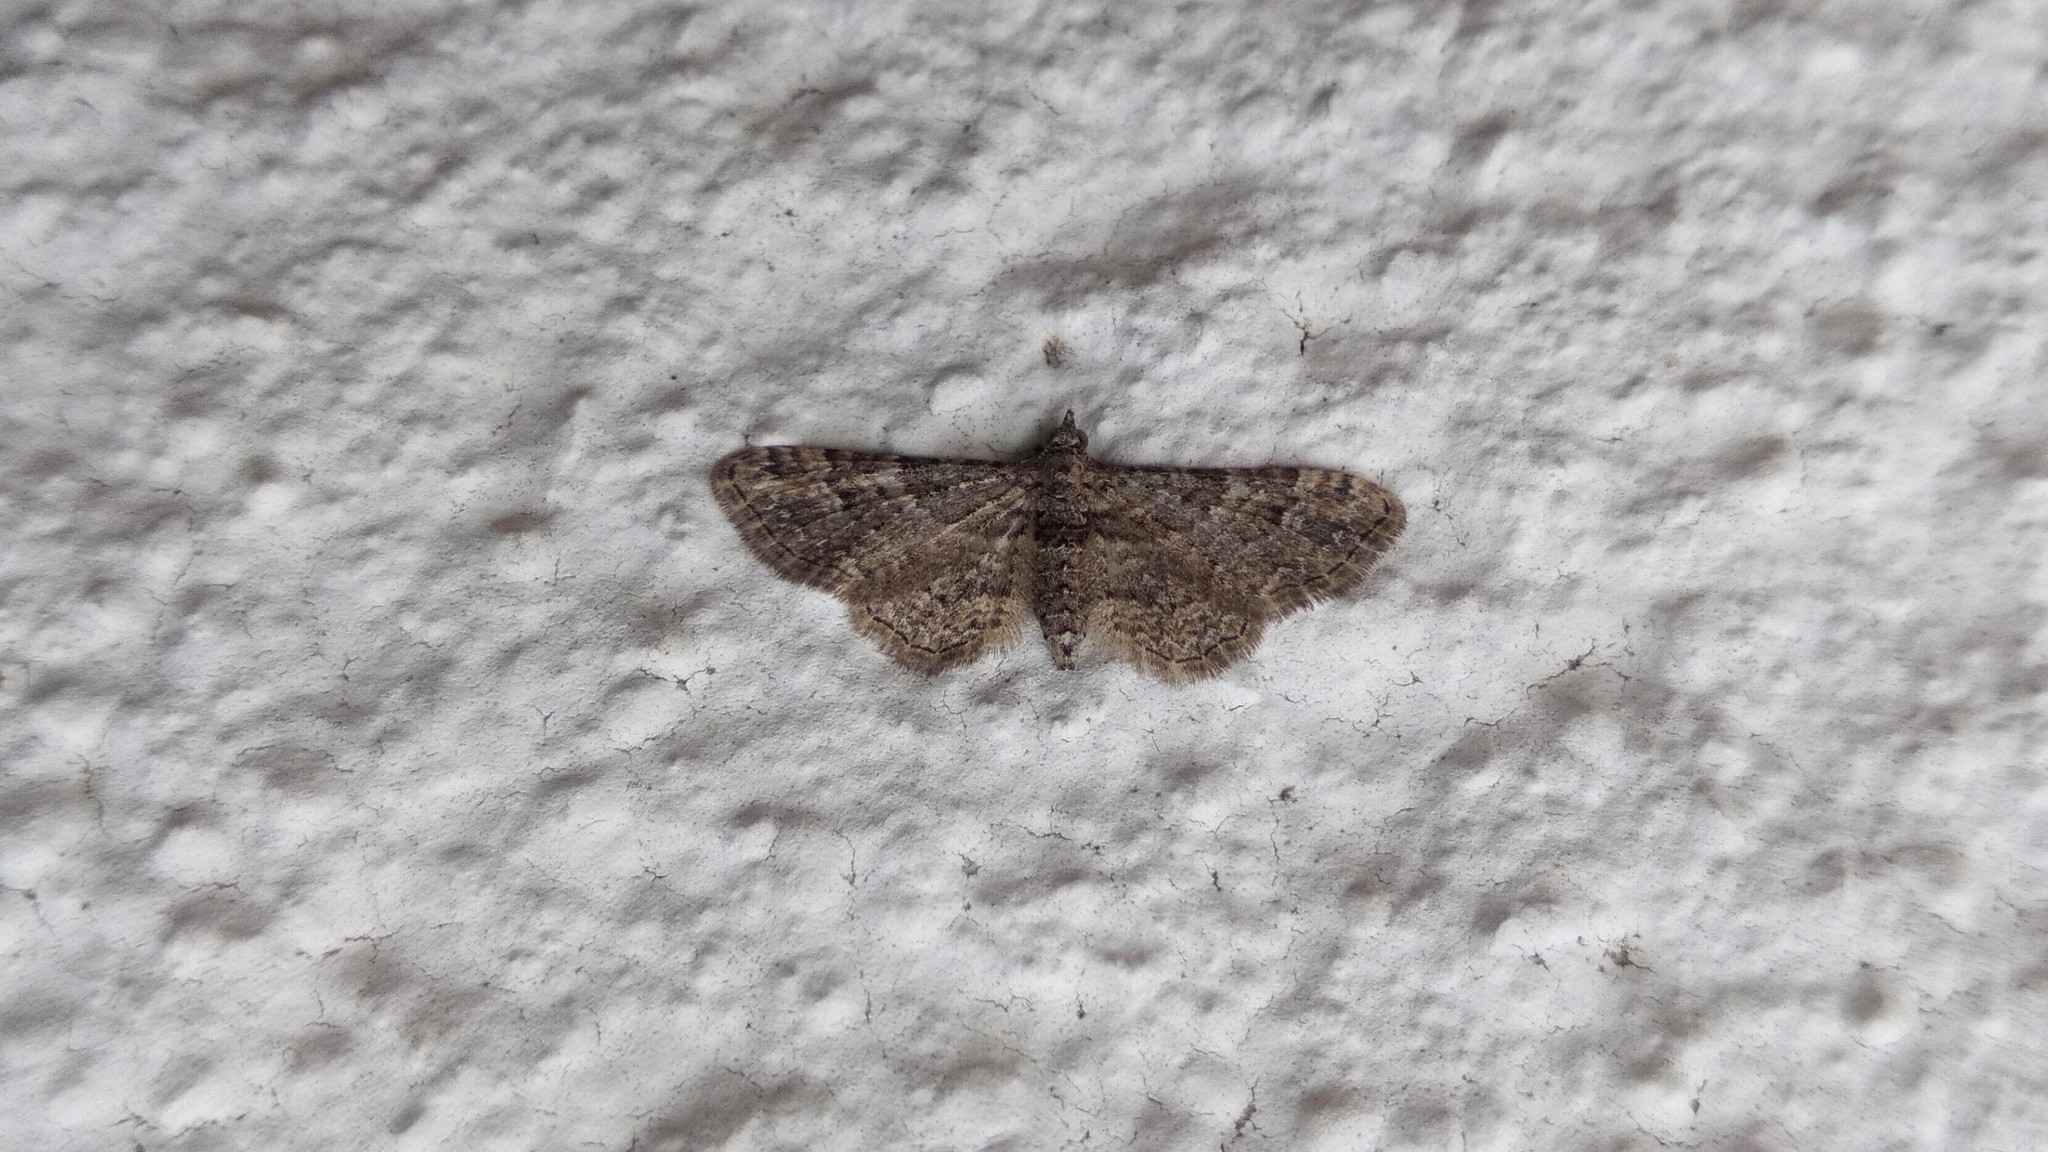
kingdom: Animalia
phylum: Arthropoda
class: Insecta
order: Lepidoptera
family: Geometridae
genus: Gymnoscelis
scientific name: Gymnoscelis rufifasciata
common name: Double-striped pug
